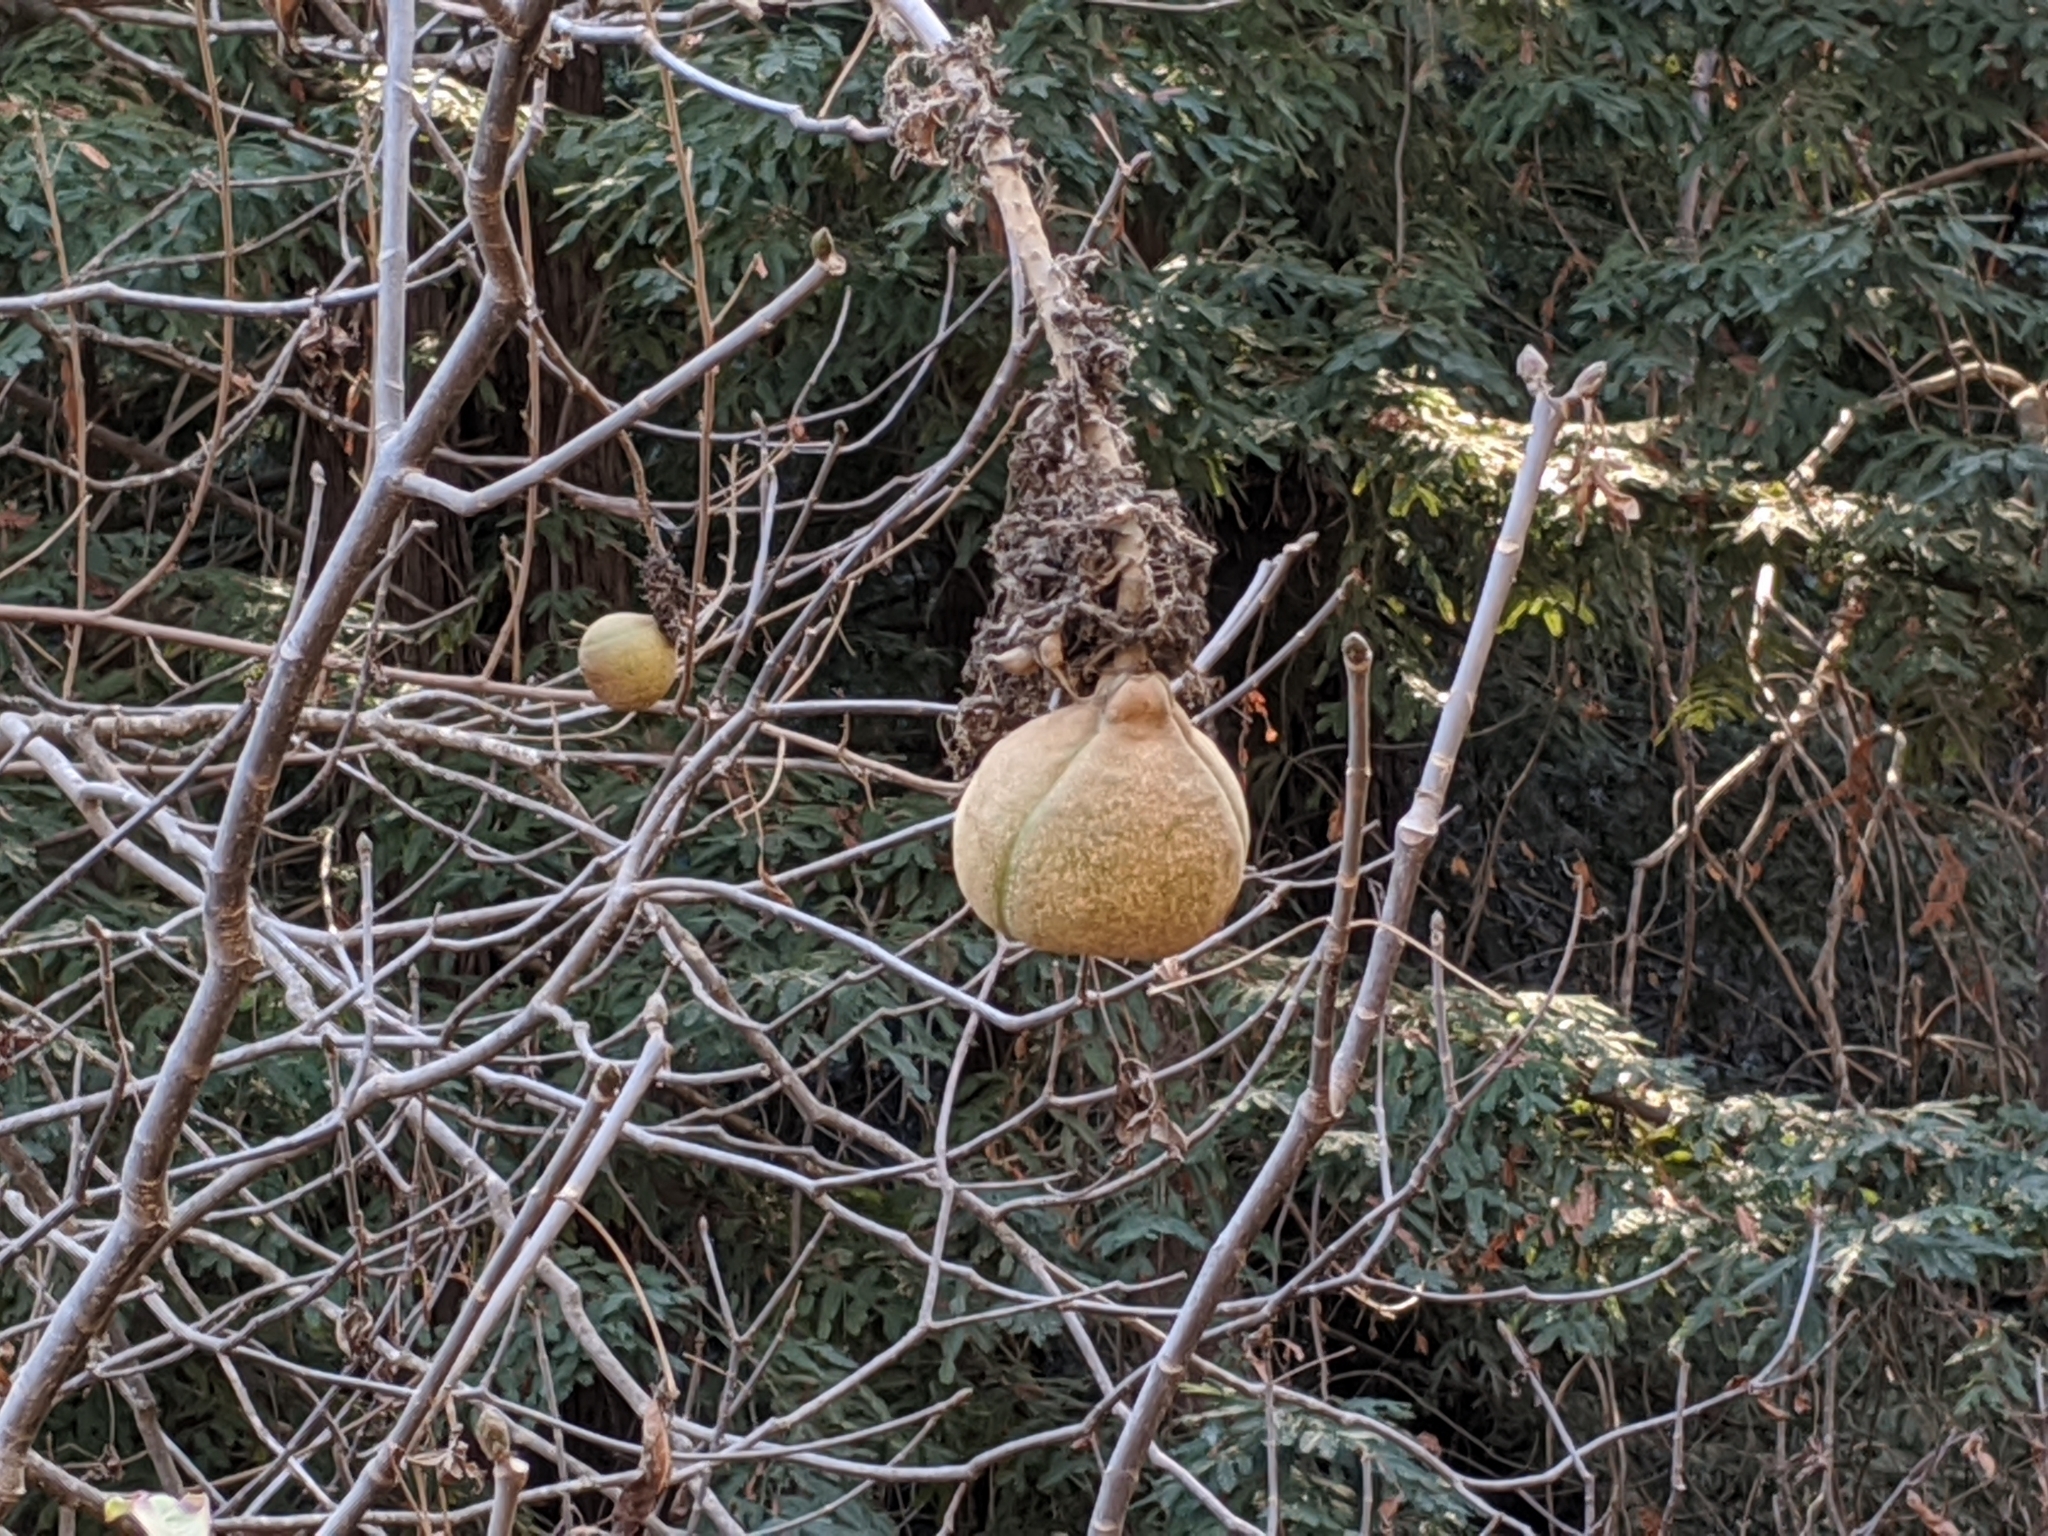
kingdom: Plantae
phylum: Tracheophyta
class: Magnoliopsida
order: Sapindales
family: Sapindaceae
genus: Aesculus
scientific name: Aesculus californica
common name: California buckeye
